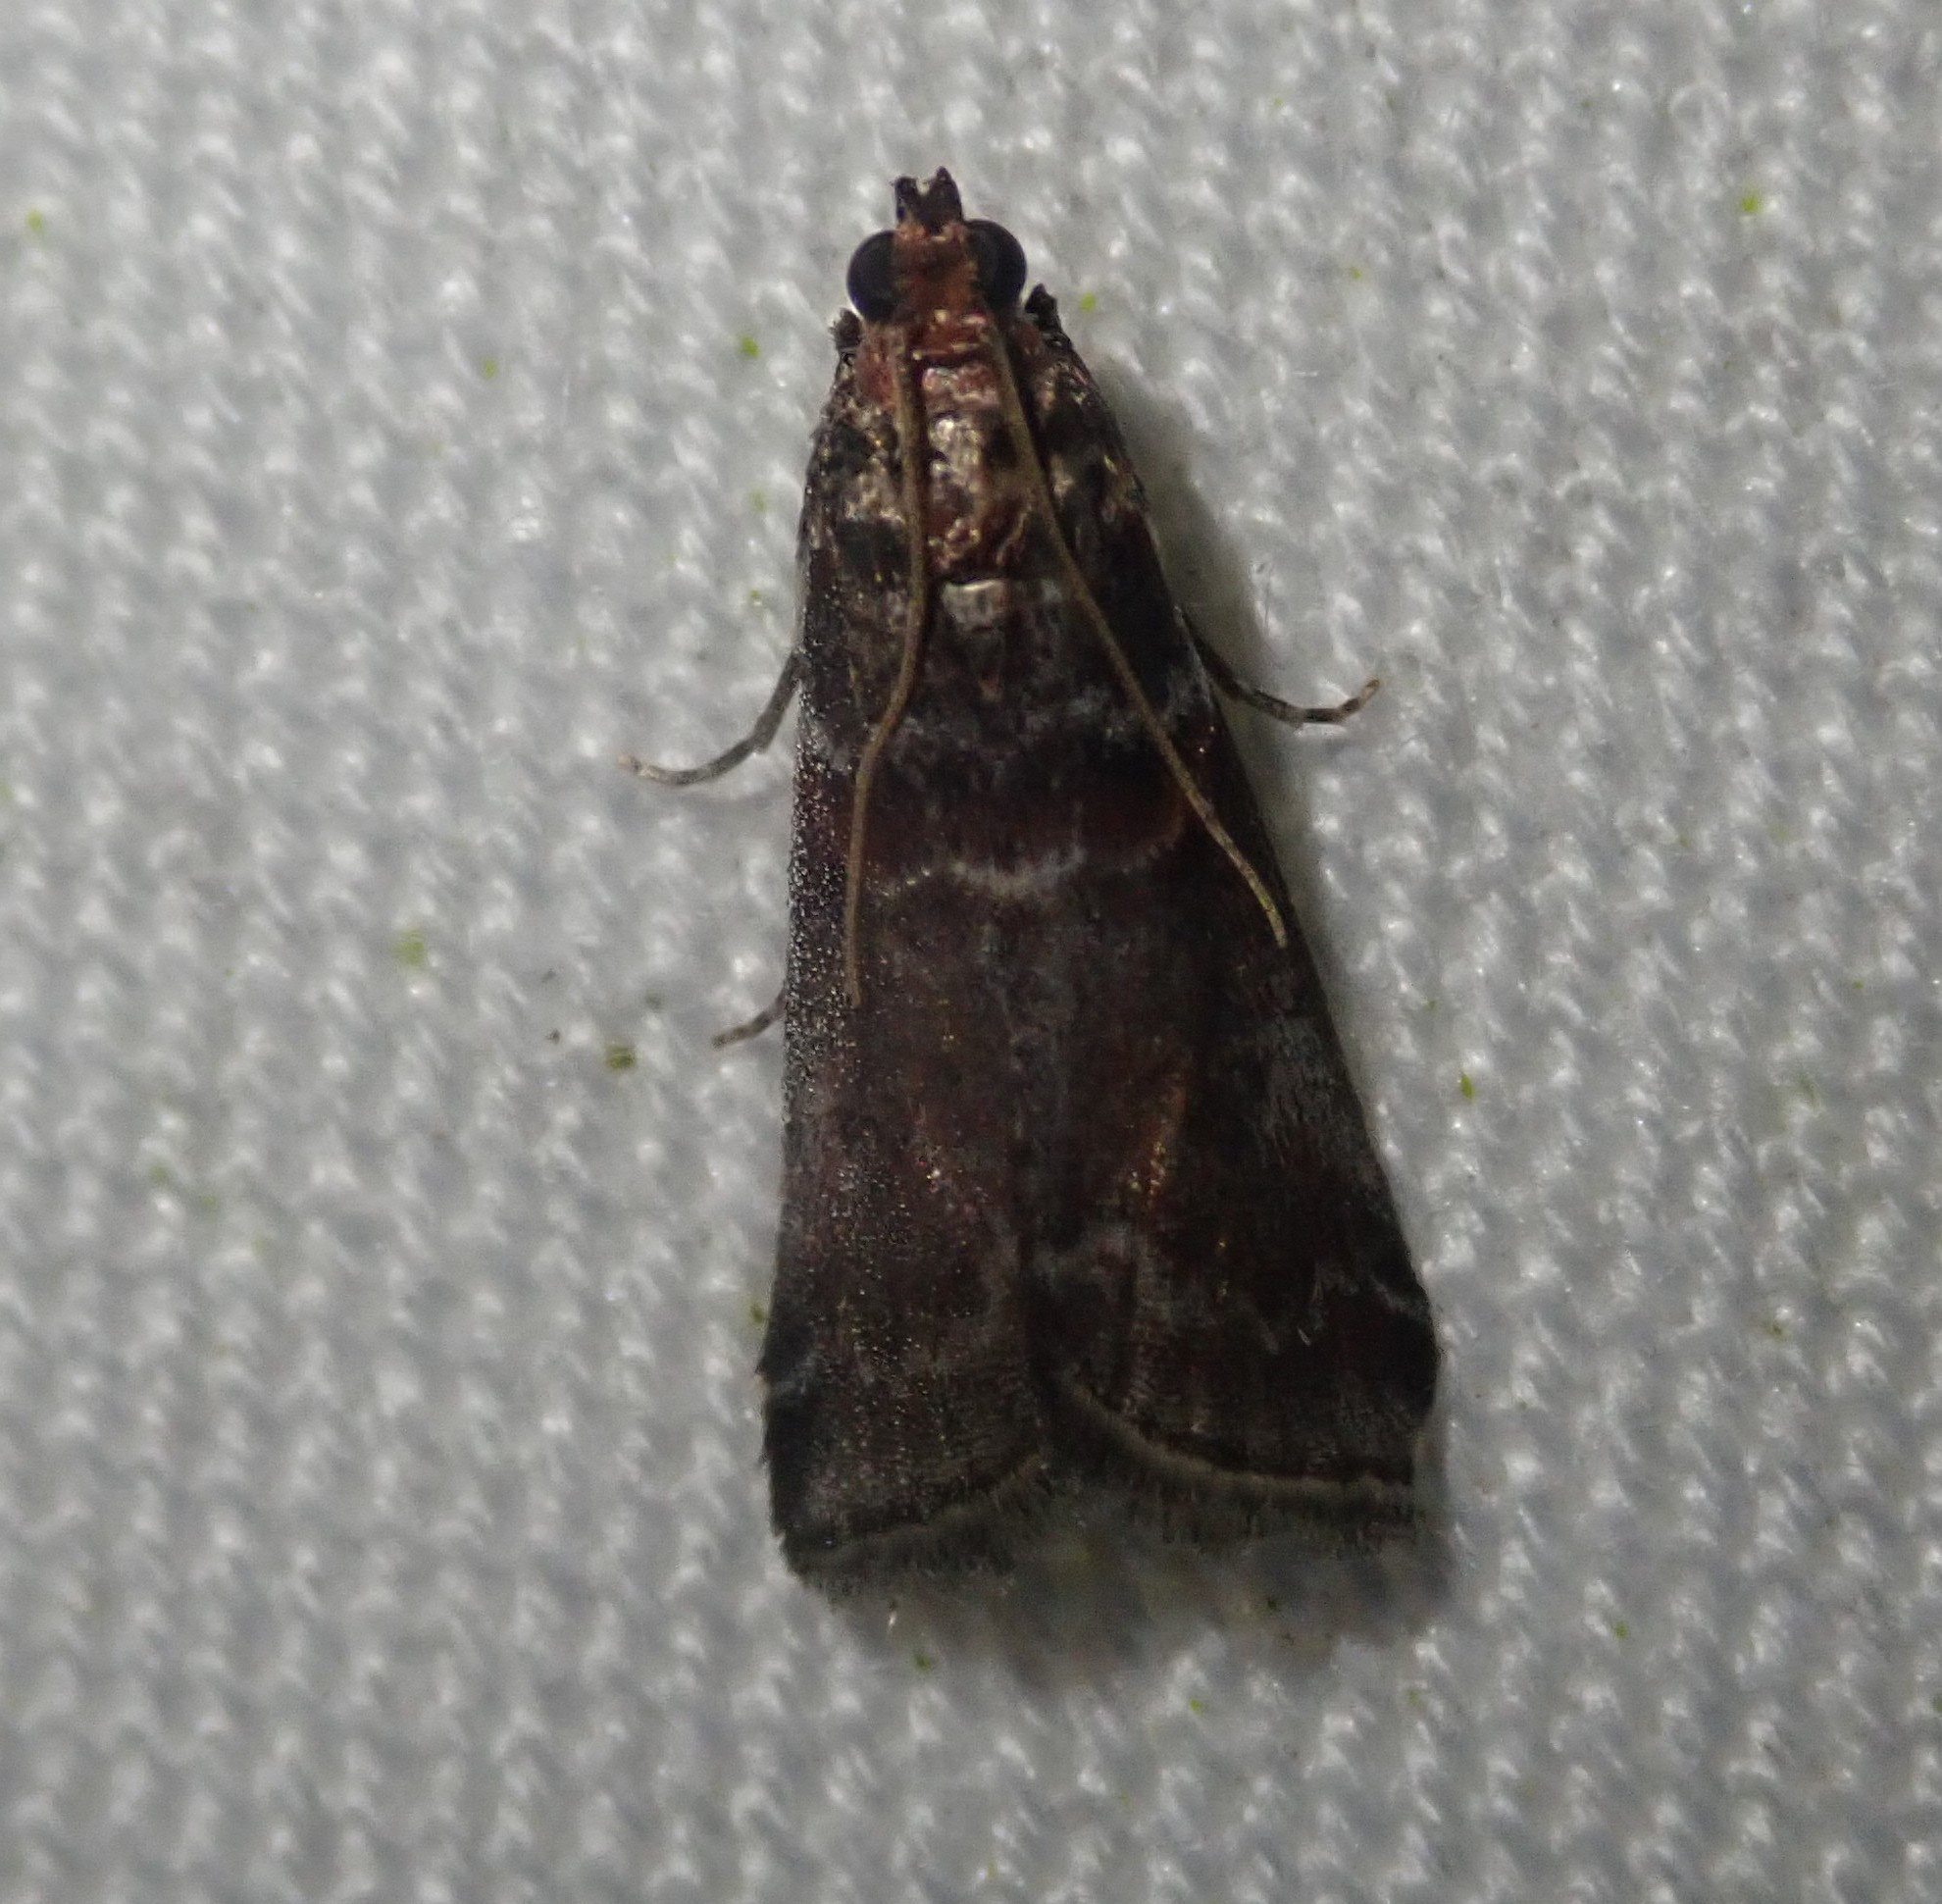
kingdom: Animalia
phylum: Arthropoda
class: Insecta
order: Lepidoptera
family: Pyralidae
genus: Acrobasis
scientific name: Acrobasis advenella
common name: Grey knot-horn
